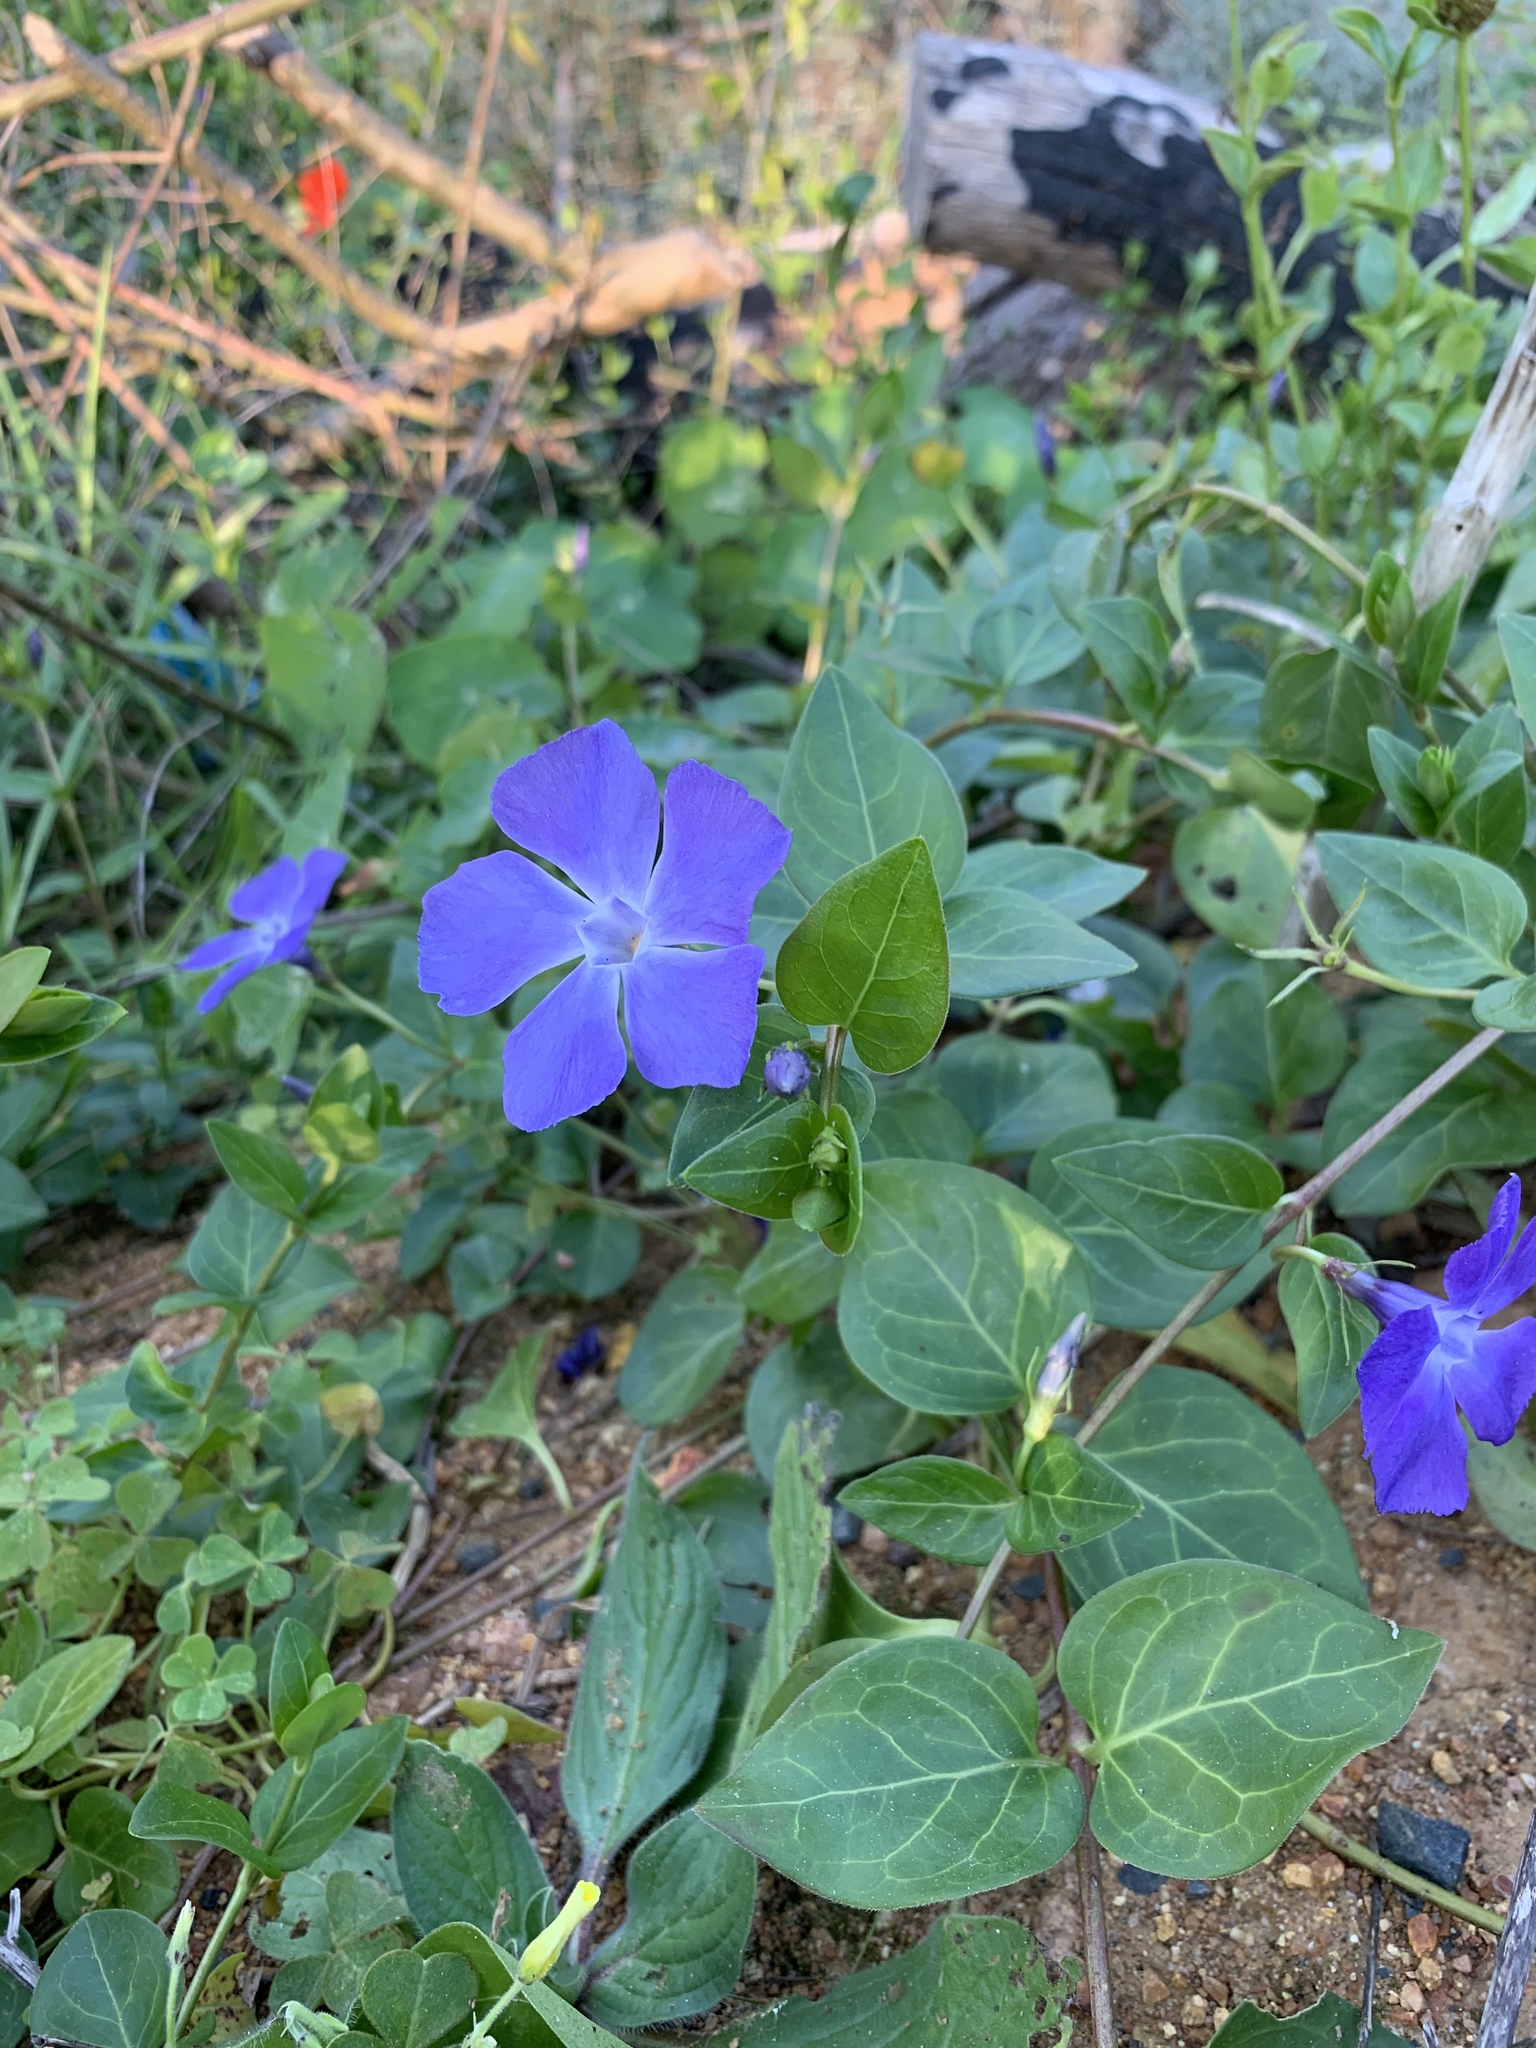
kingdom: Plantae
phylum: Tracheophyta
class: Magnoliopsida
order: Gentianales
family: Apocynaceae
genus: Vinca
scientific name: Vinca major
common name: Greater periwinkle
